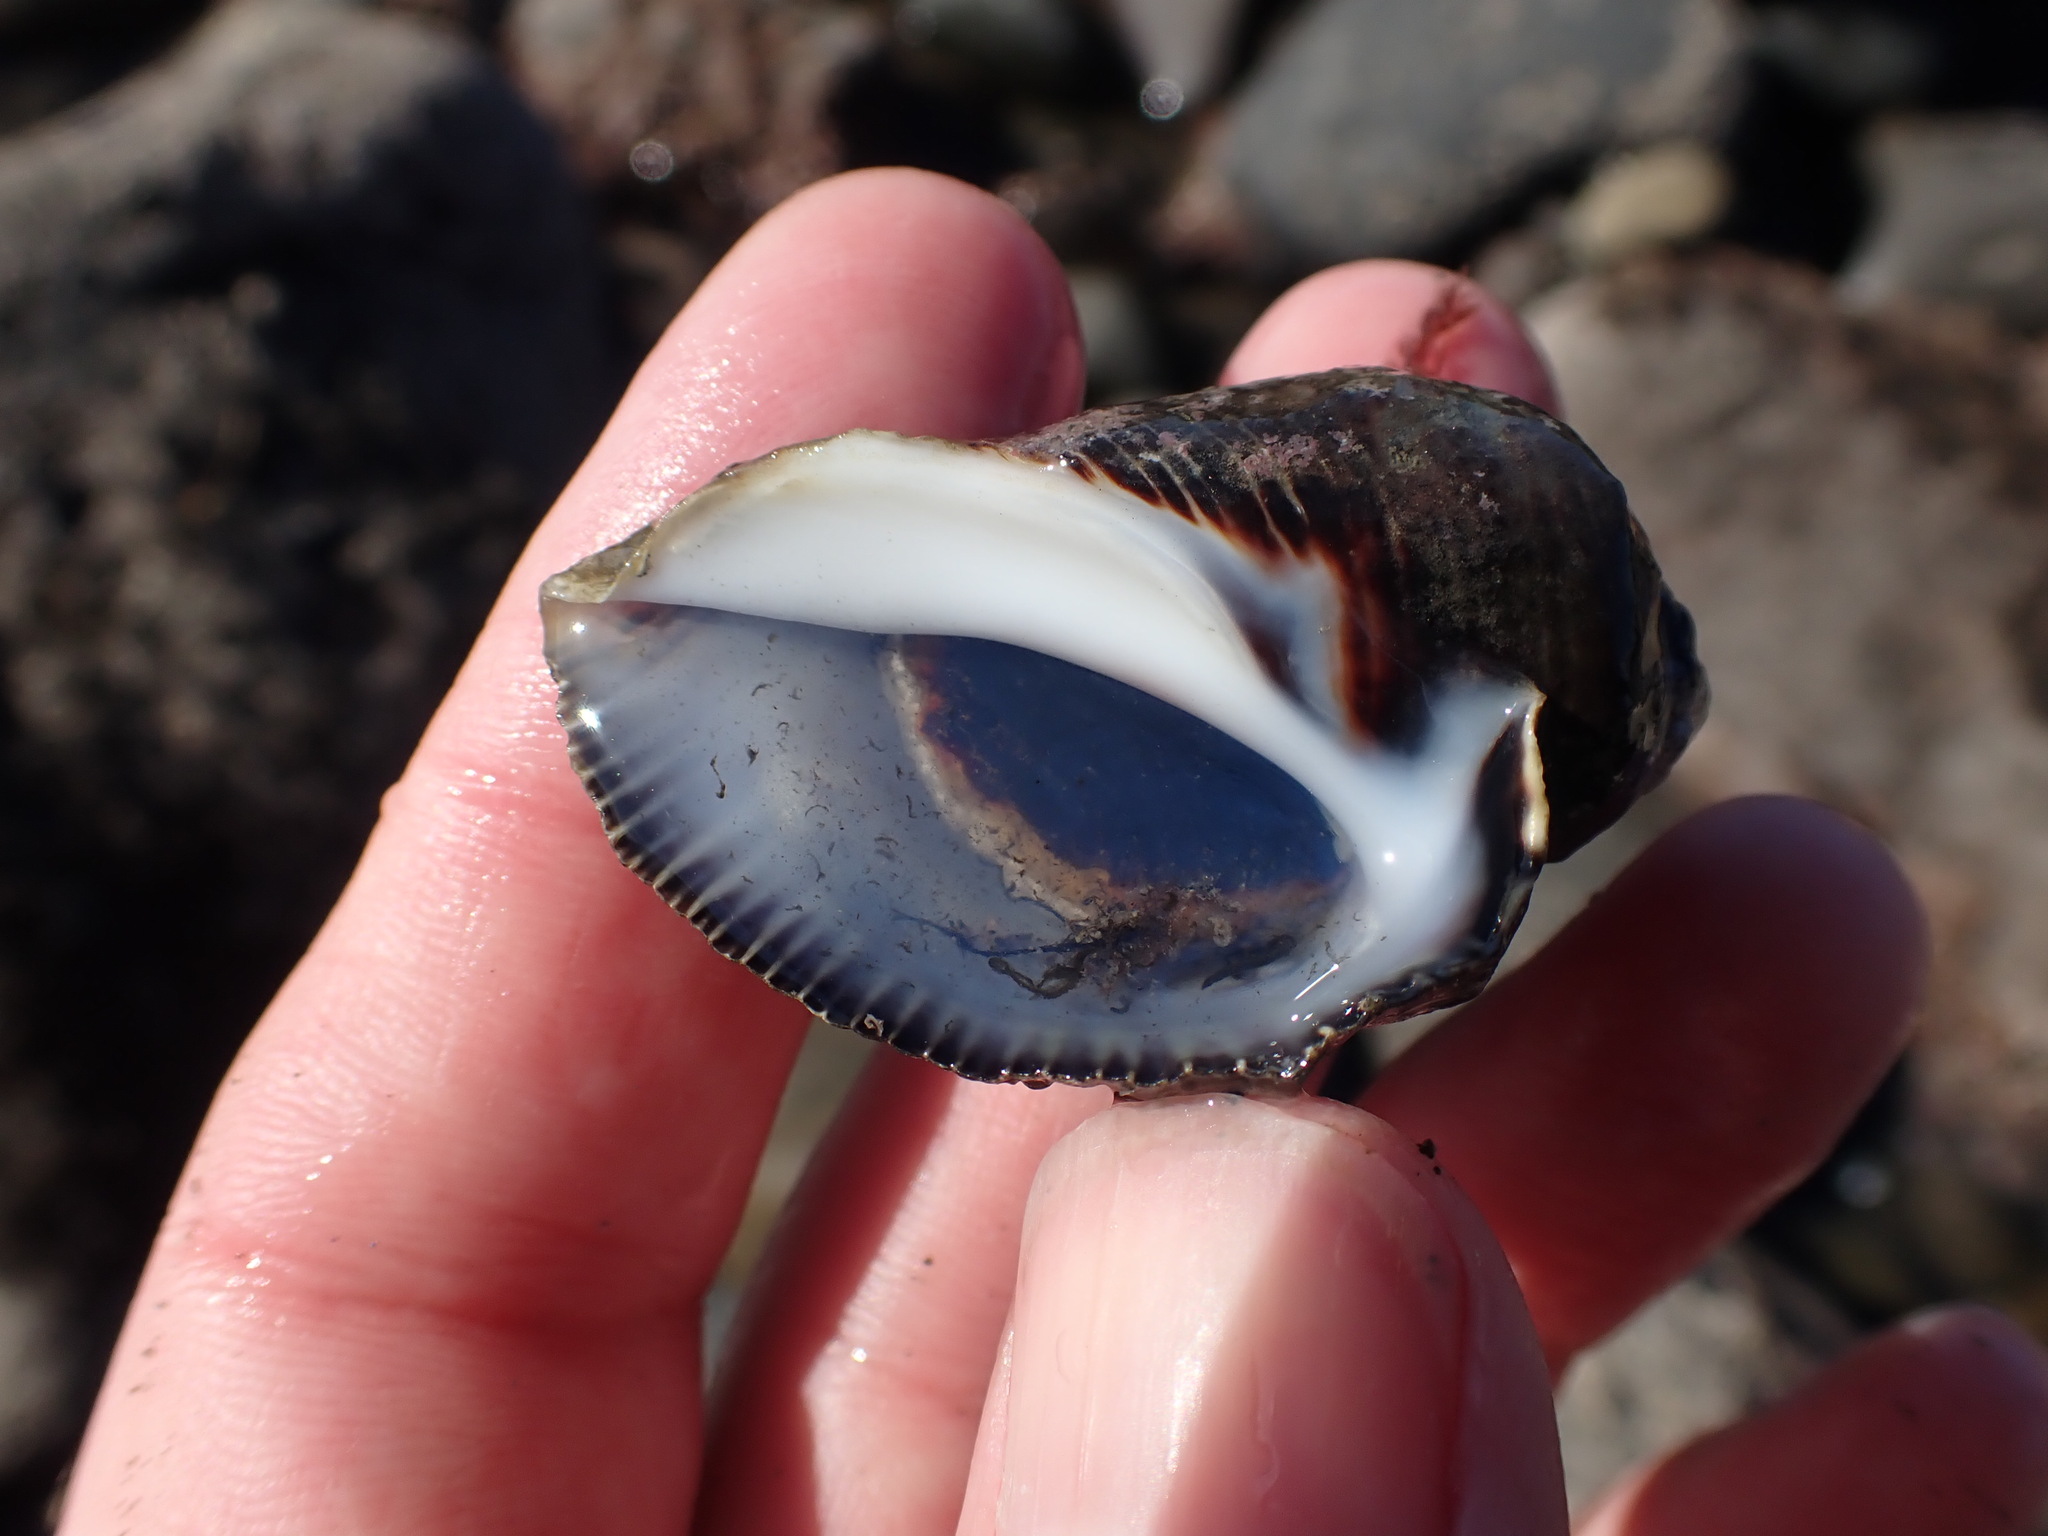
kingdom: Animalia
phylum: Mollusca
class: Gastropoda
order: Neogastropoda
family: Muricidae
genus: Haustrum
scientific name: Haustrum haustorium
